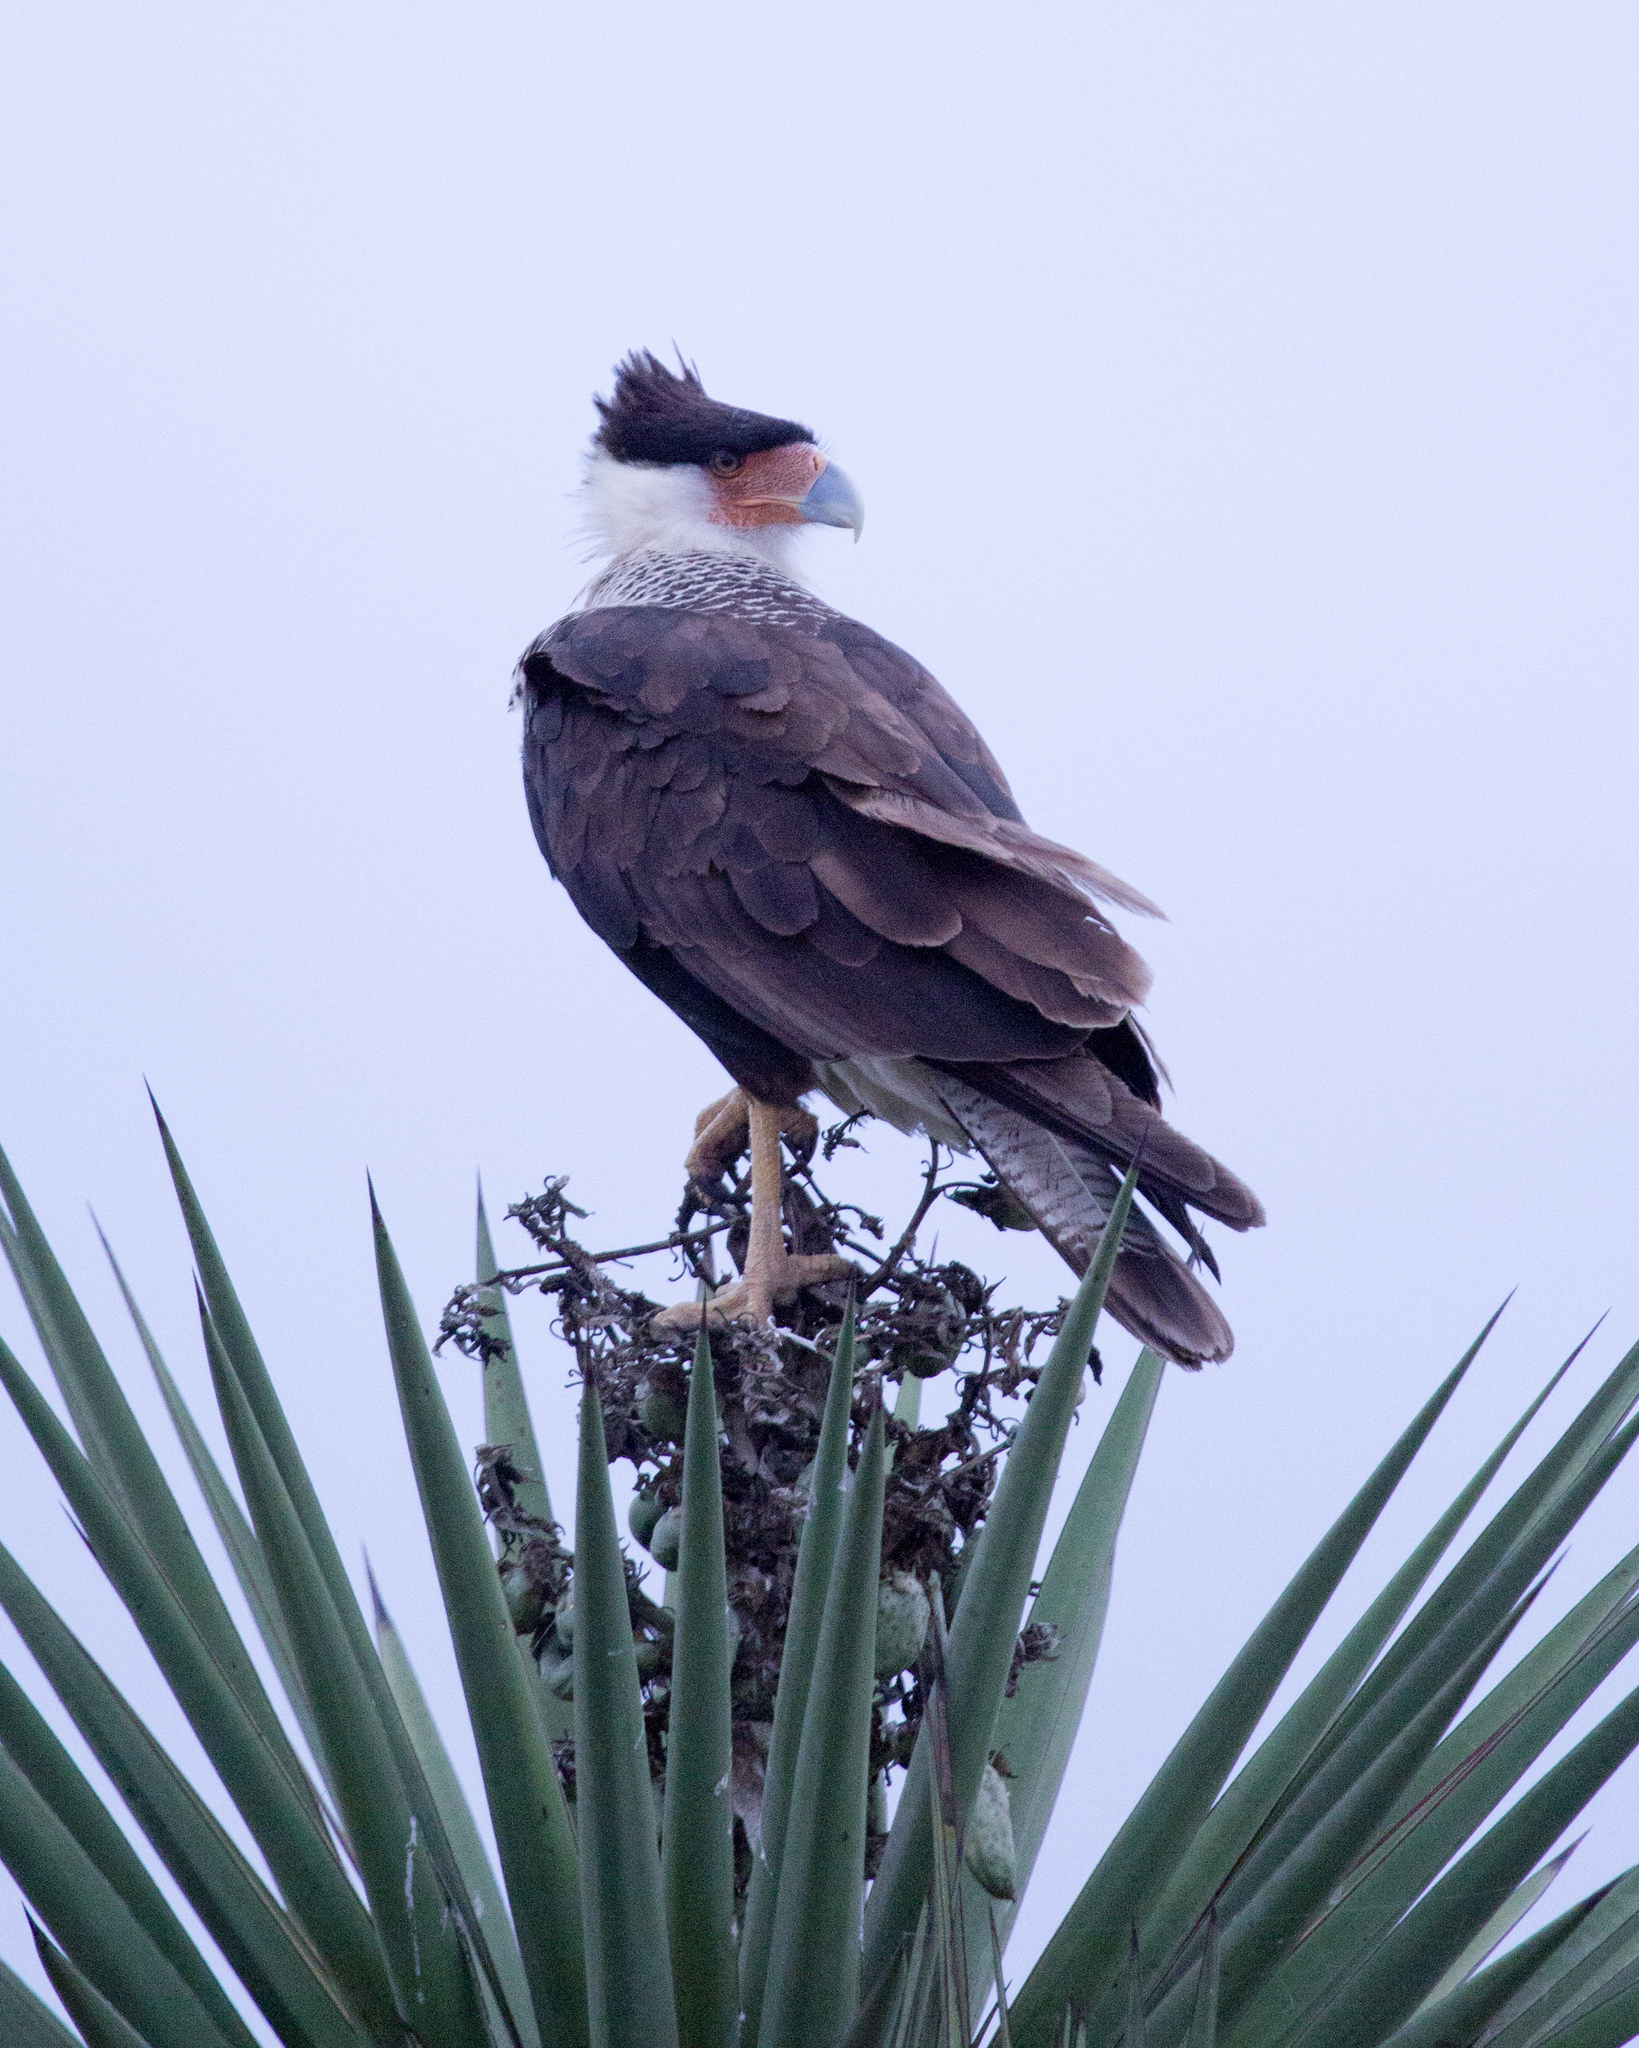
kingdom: Animalia
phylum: Chordata
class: Aves
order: Falconiformes
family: Falconidae
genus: Caracara
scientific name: Caracara plancus
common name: Southern caracara
